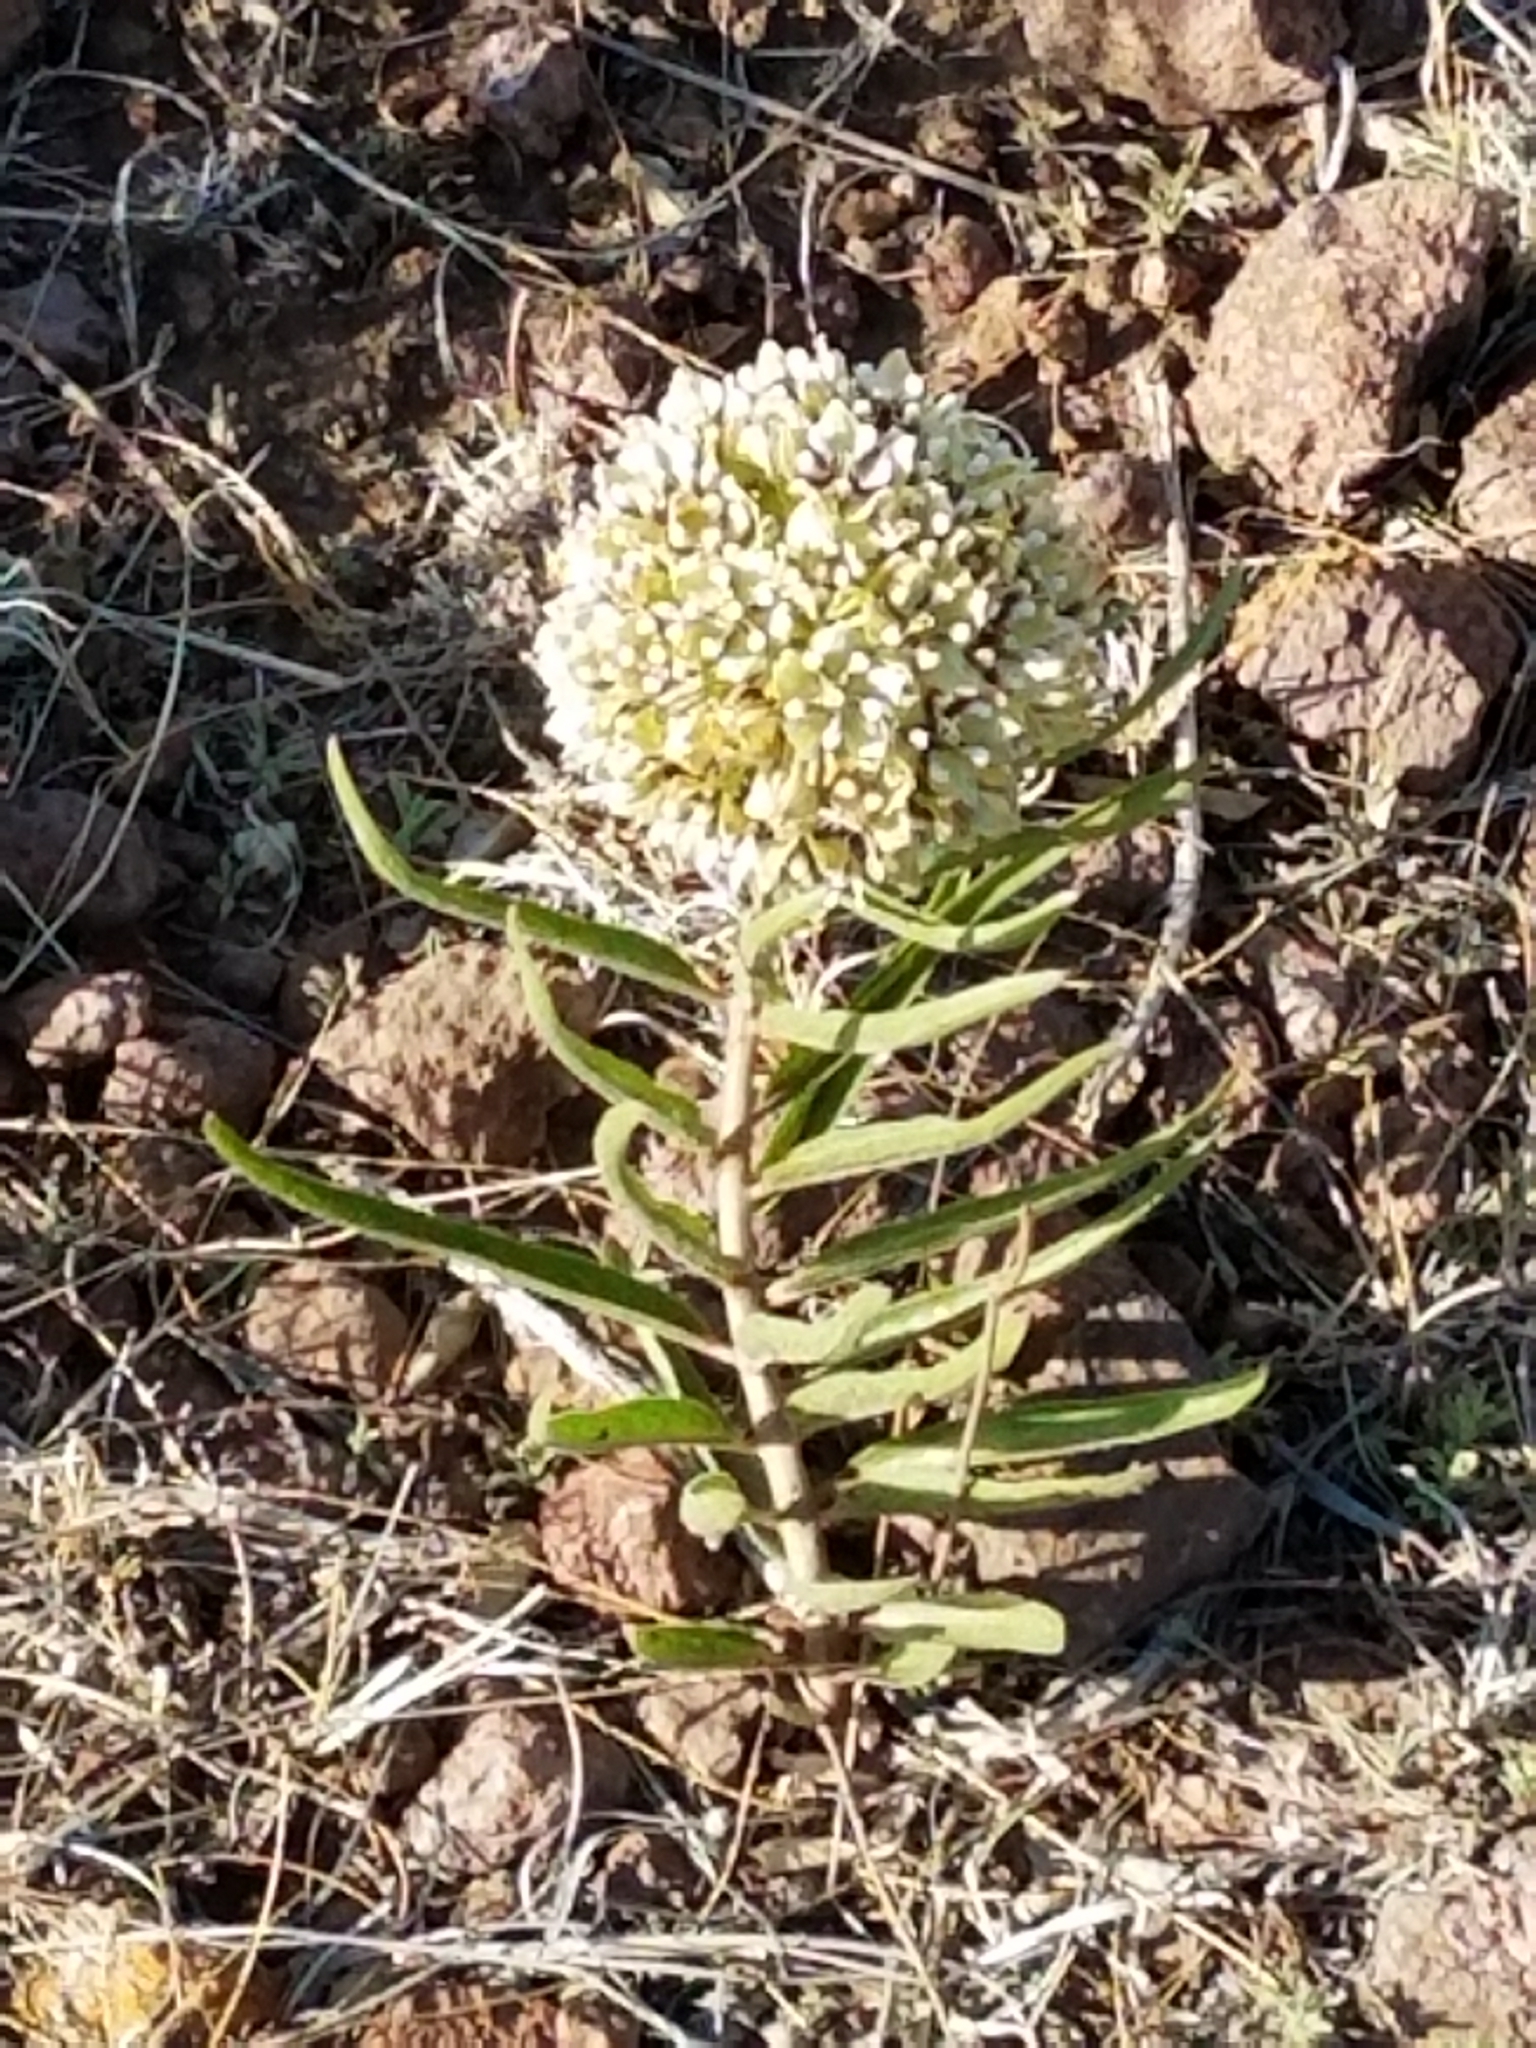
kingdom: Plantae
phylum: Tracheophyta
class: Magnoliopsida
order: Gentianales
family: Apocynaceae
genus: Asclepias
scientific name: Asclepias asperula
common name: Antelope horns
